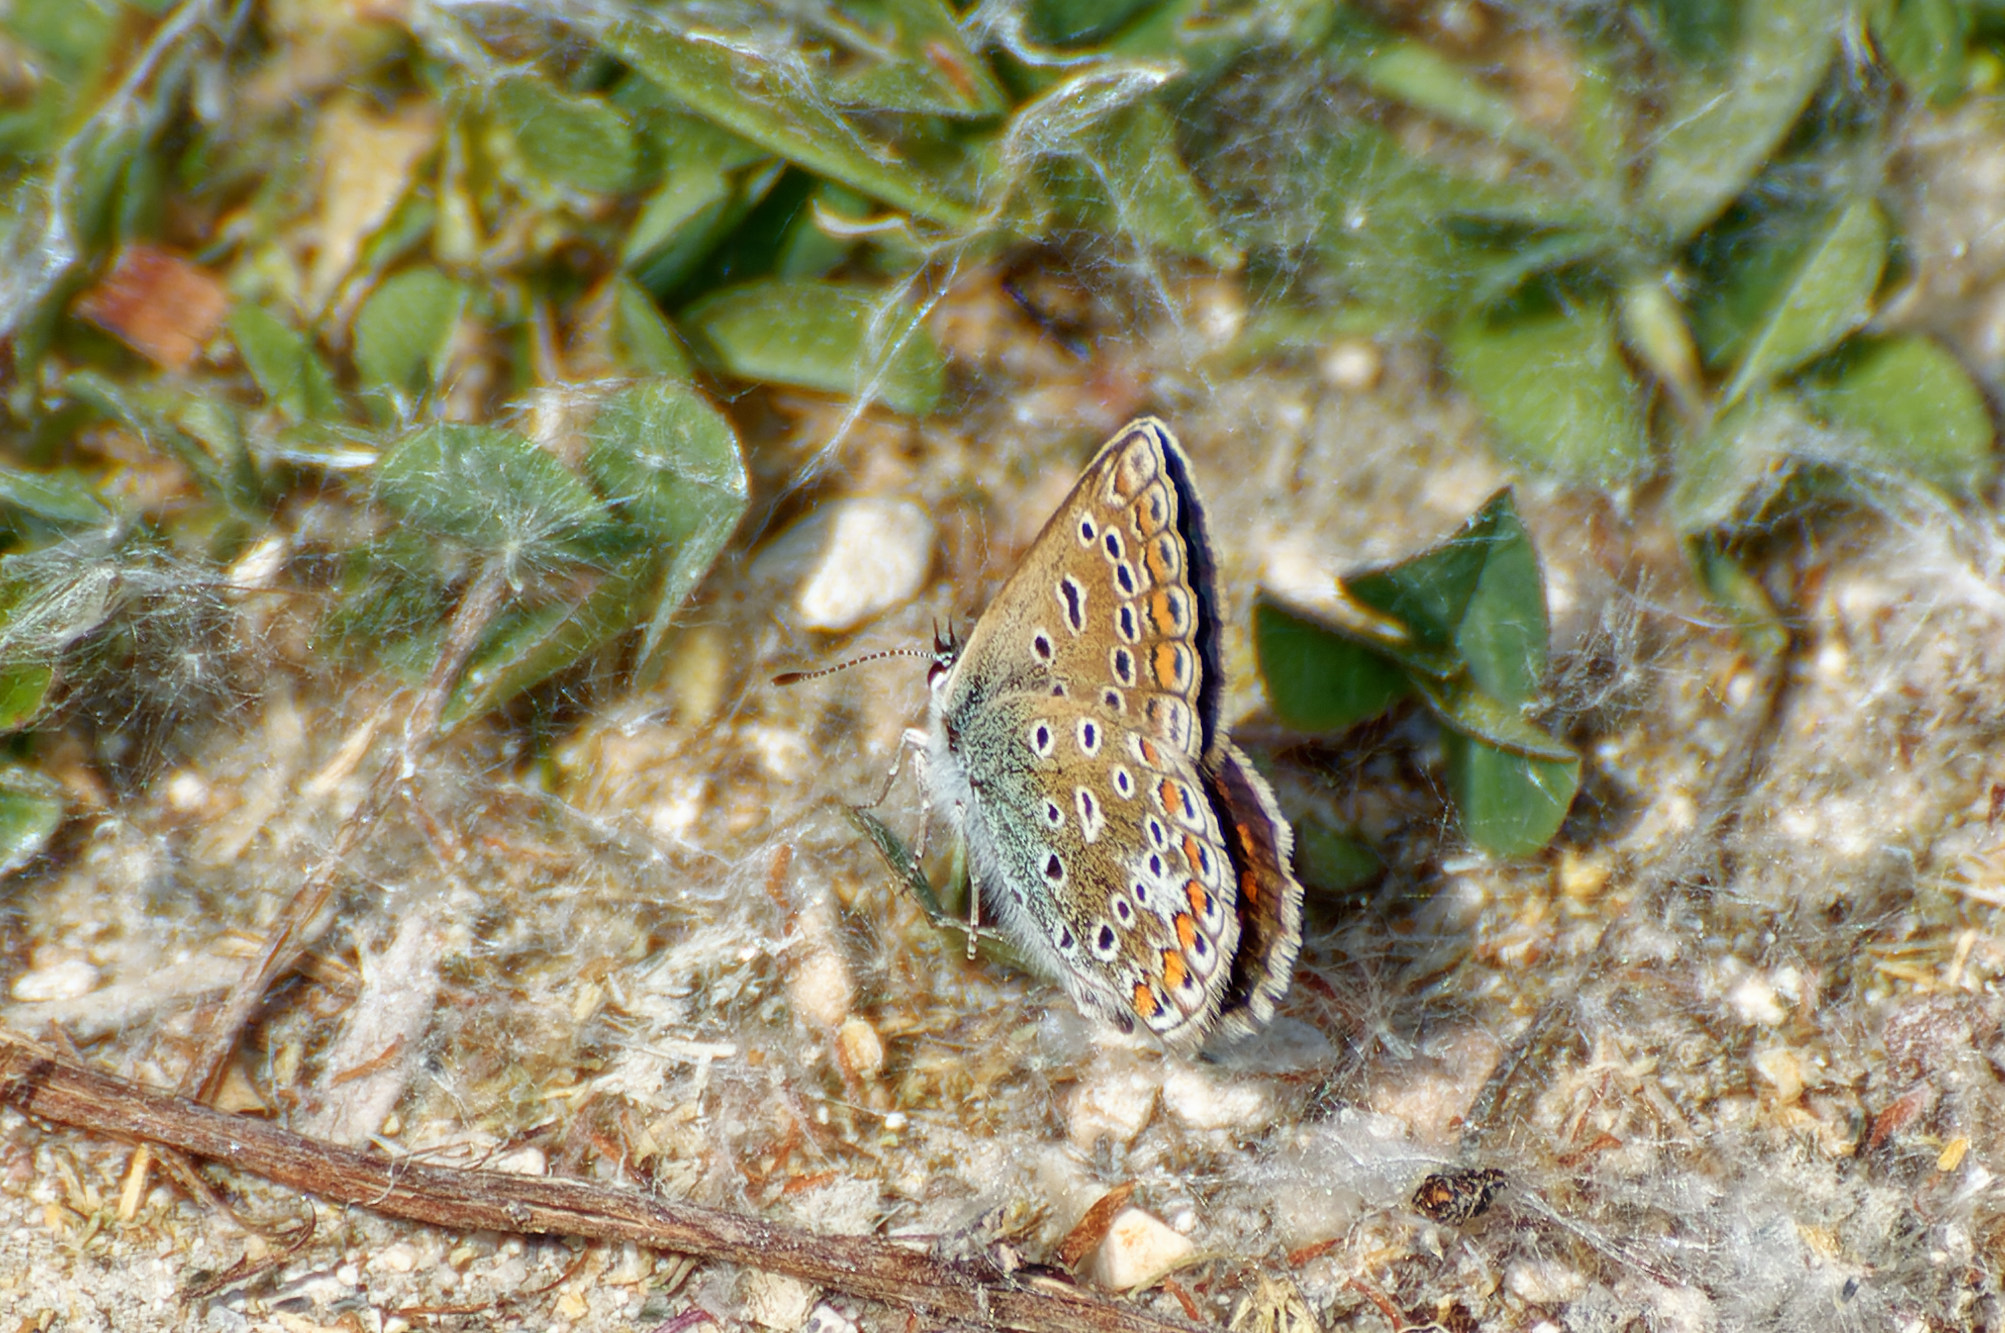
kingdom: Animalia
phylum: Arthropoda
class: Insecta
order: Lepidoptera
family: Lycaenidae
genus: Polyommatus
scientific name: Polyommatus icarus
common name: Common blue
